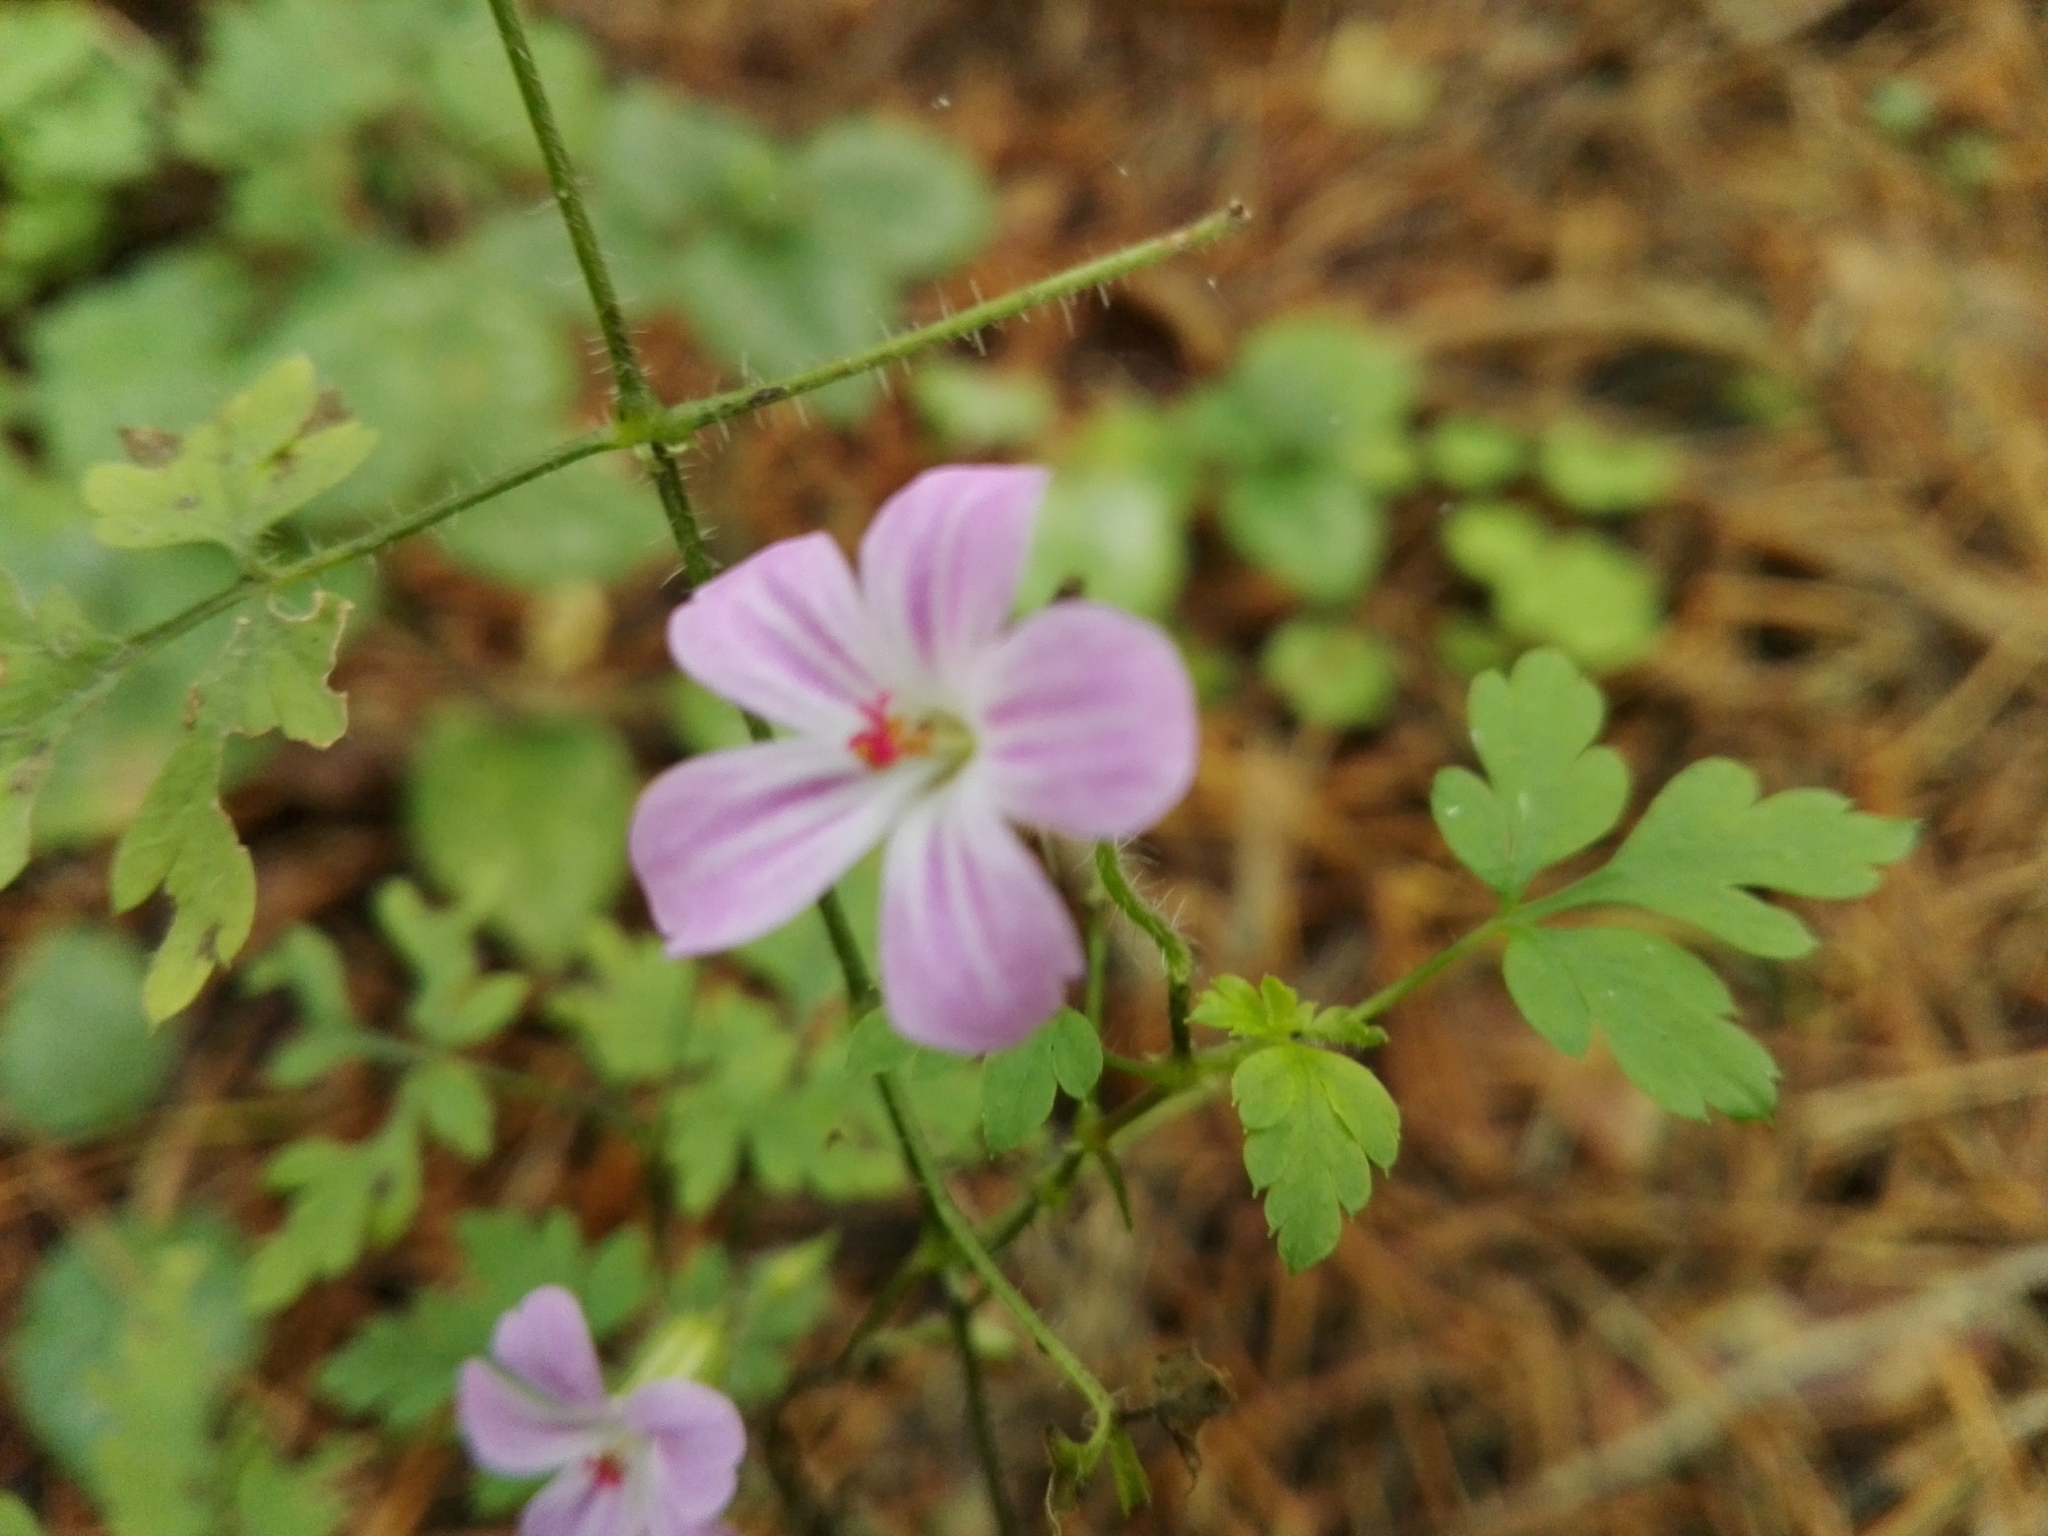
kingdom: Plantae
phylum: Tracheophyta
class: Magnoliopsida
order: Geraniales
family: Geraniaceae
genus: Geranium
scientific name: Geranium robertianum
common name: Herb-robert
